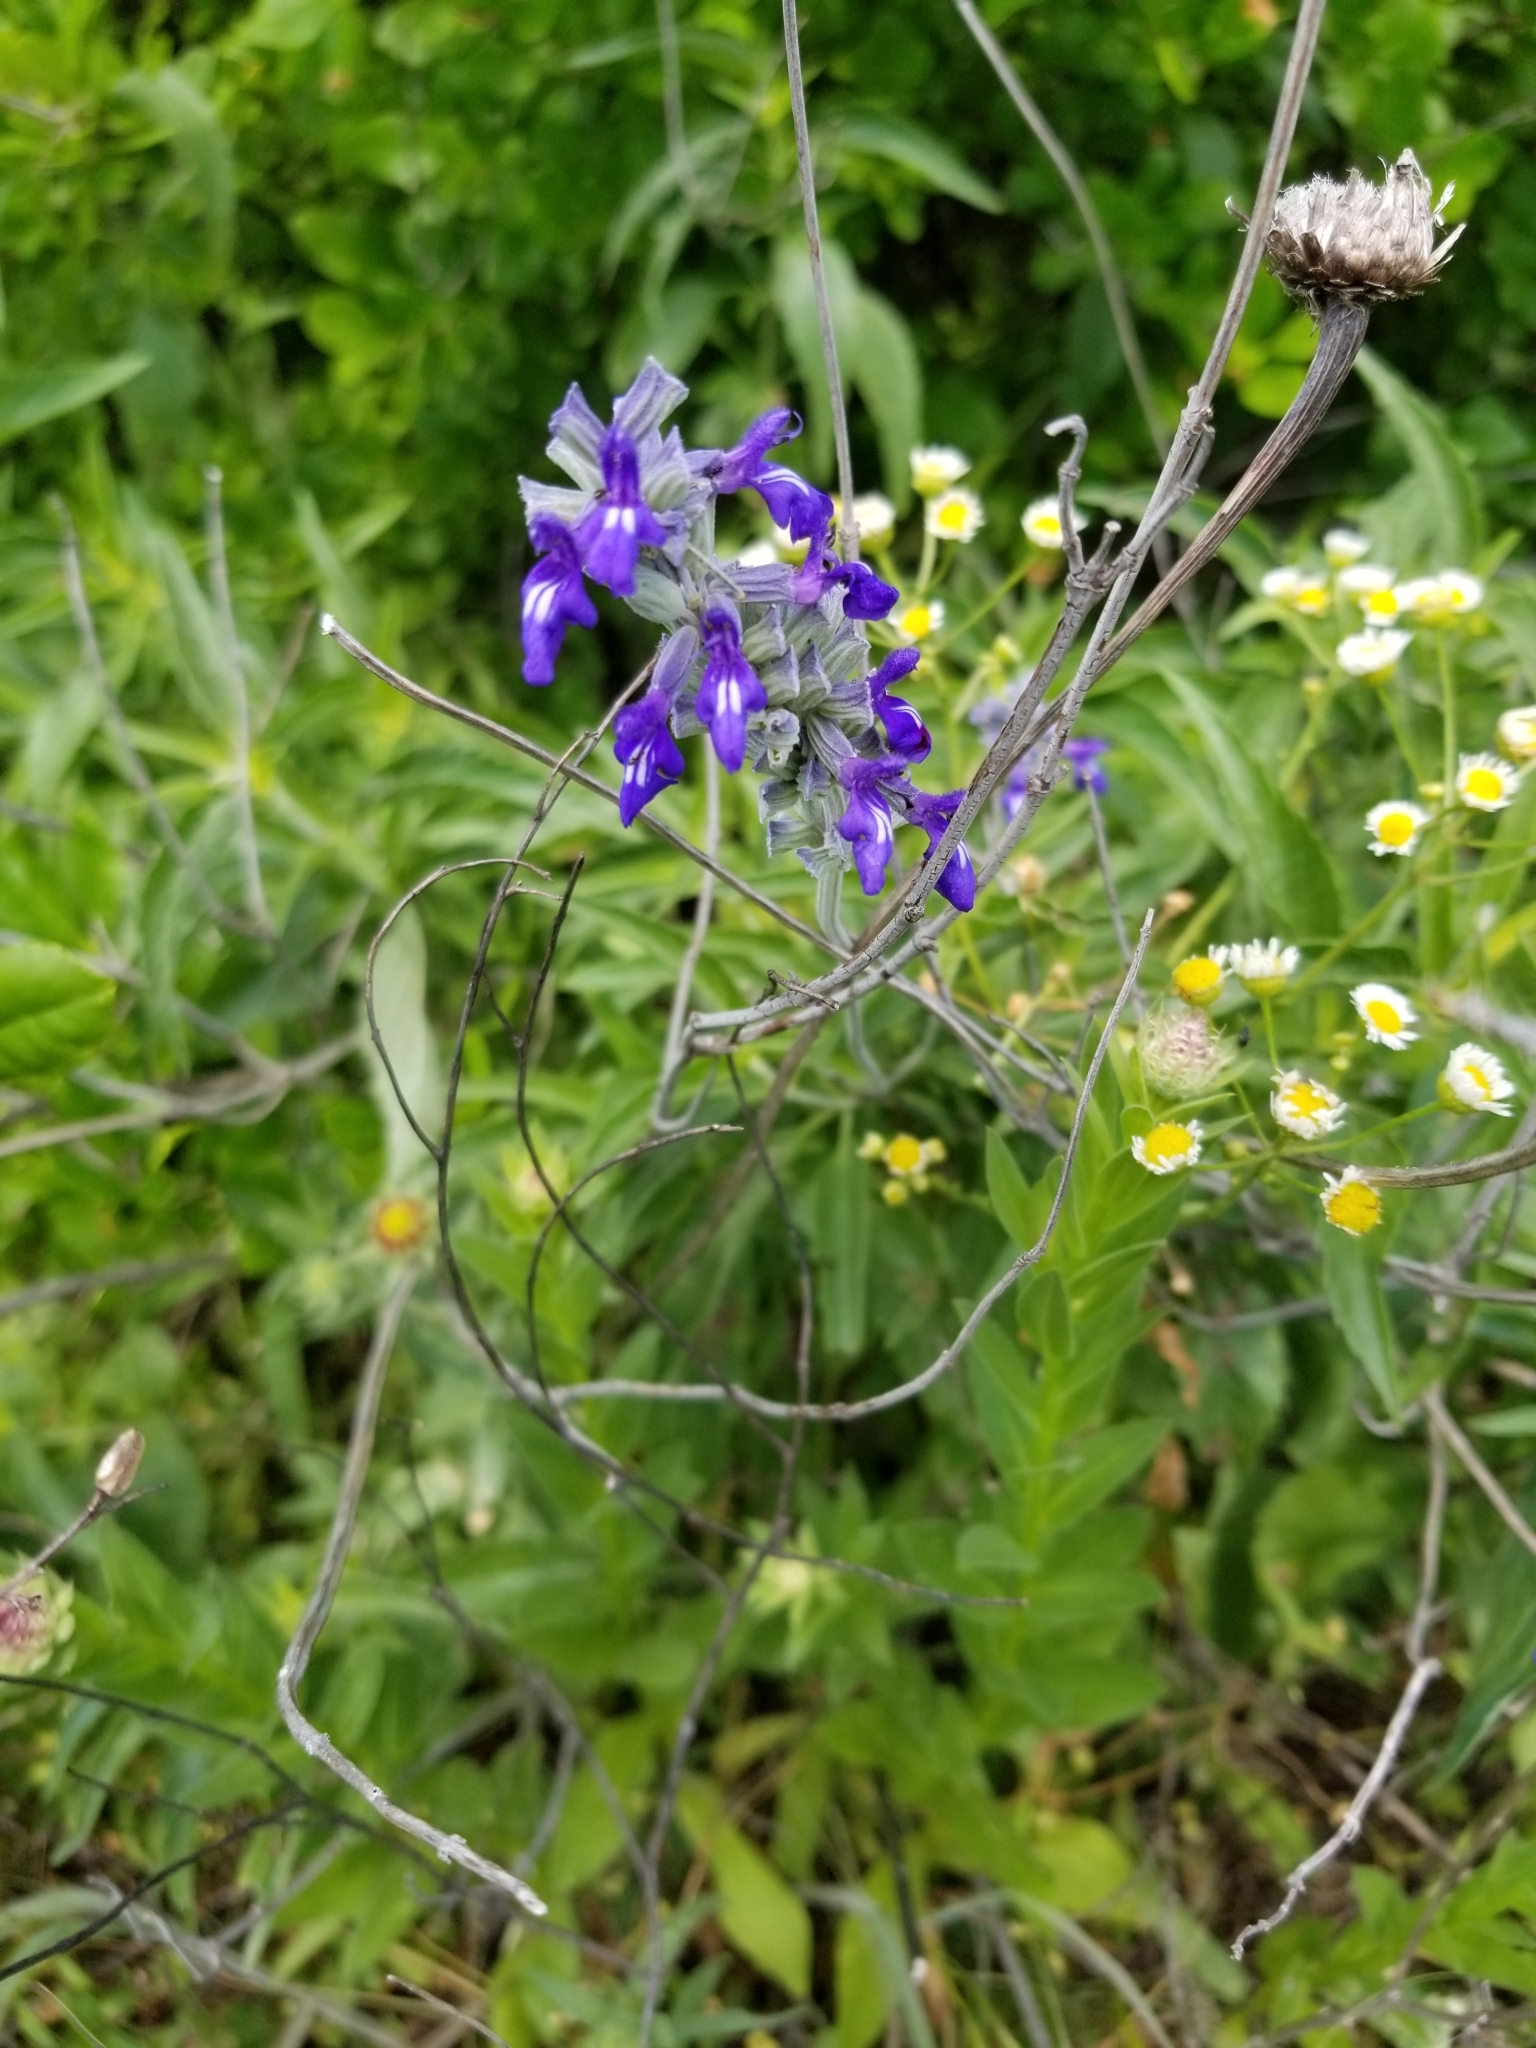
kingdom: Plantae
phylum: Tracheophyta
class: Magnoliopsida
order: Lamiales
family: Lamiaceae
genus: Salvia
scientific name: Salvia farinacea
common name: Mealy sage
